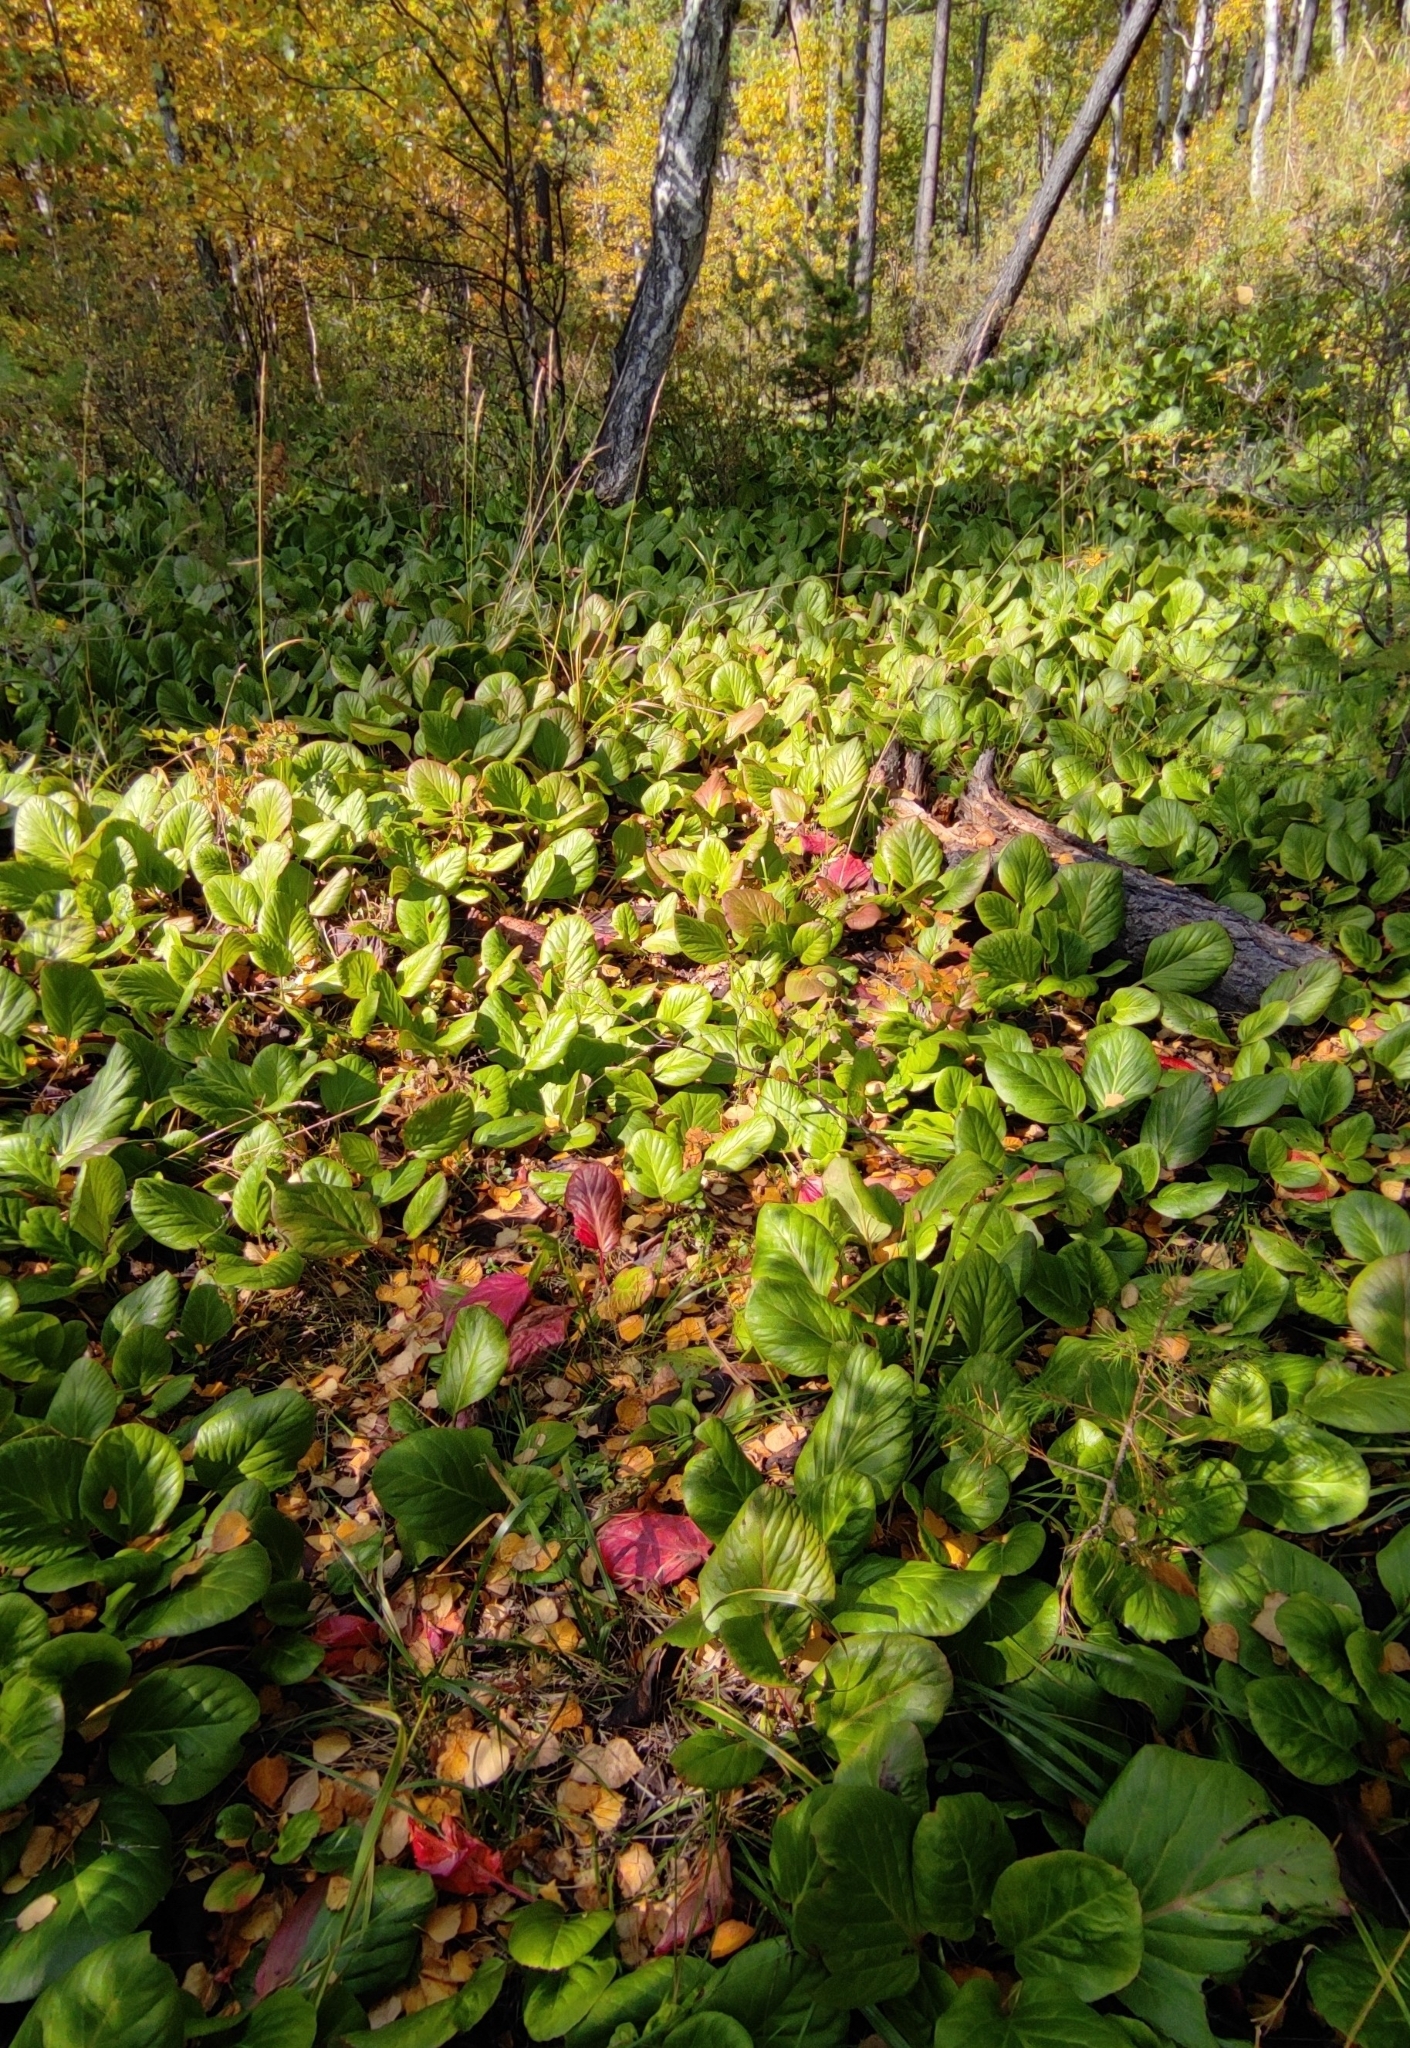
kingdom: Plantae
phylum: Tracheophyta
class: Magnoliopsida
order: Saxifragales
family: Saxifragaceae
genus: Bergenia
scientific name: Bergenia crassifolia
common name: Elephant-ears
